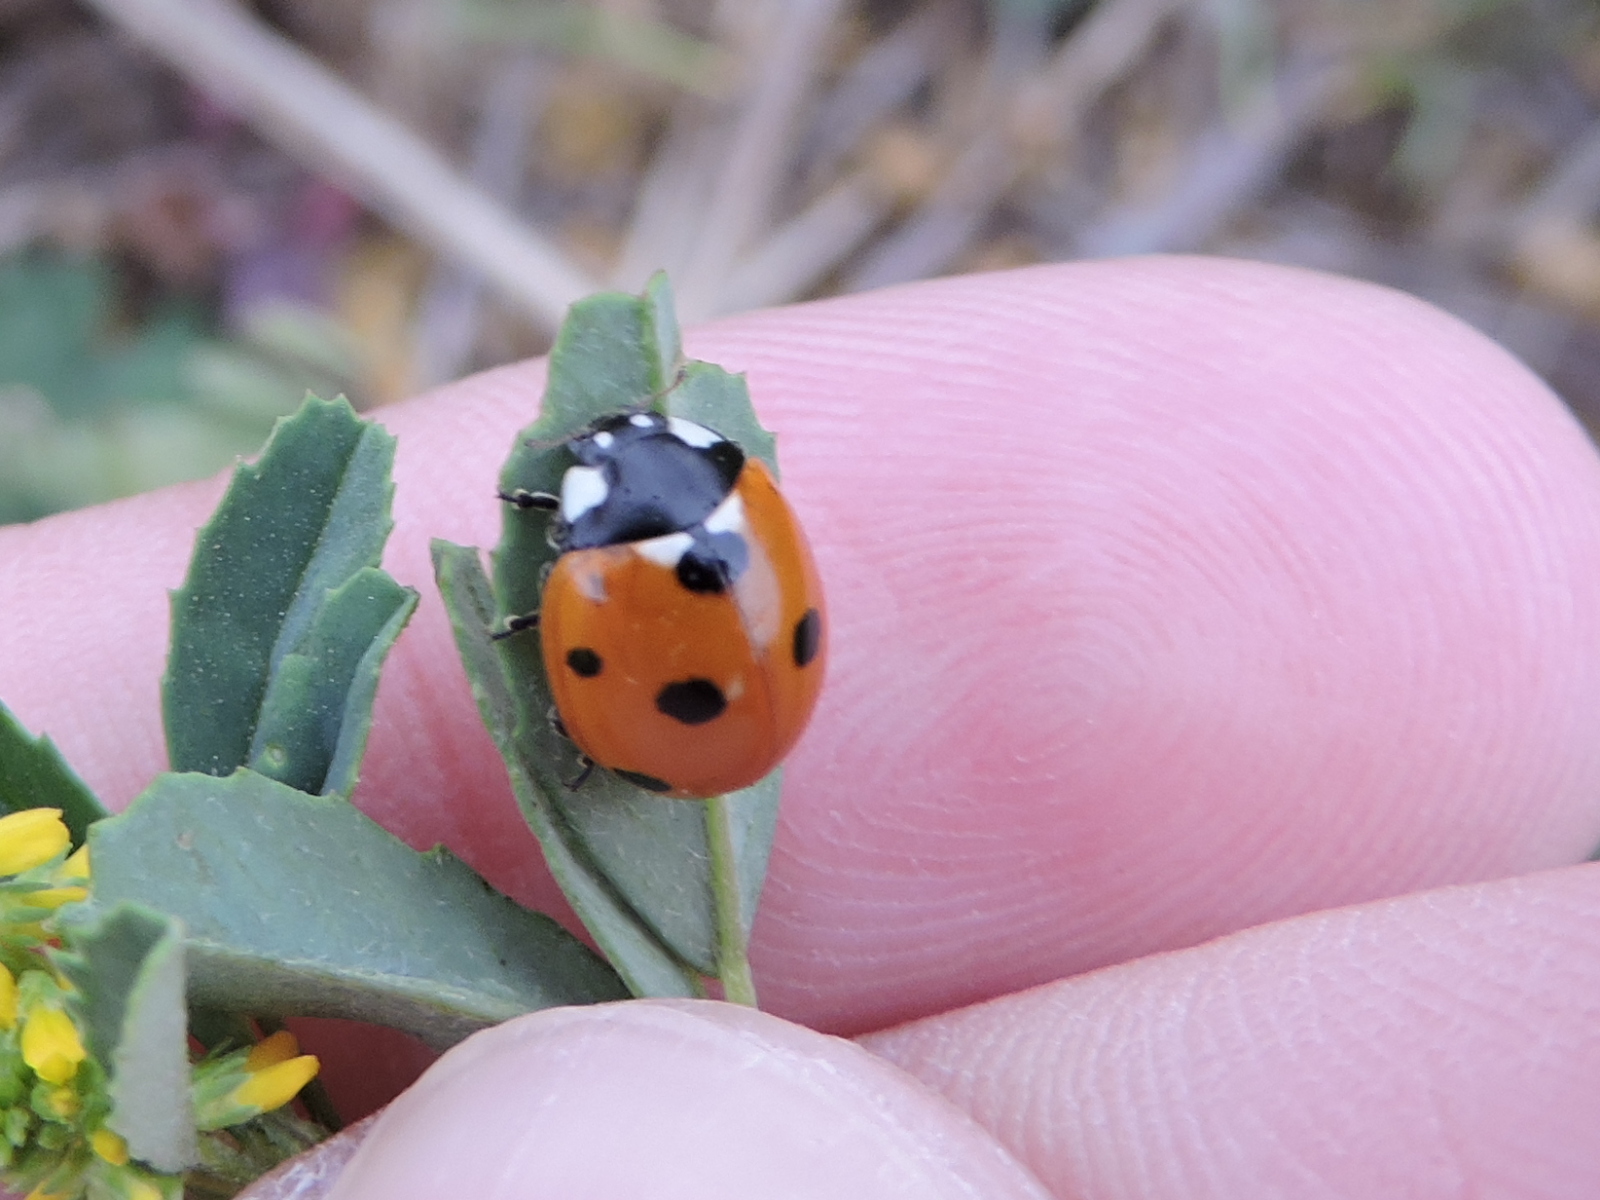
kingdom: Animalia
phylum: Arthropoda
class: Insecta
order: Coleoptera
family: Coccinellidae
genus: Coccinella
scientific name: Coccinella septempunctata
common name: Sevenspotted lady beetle
